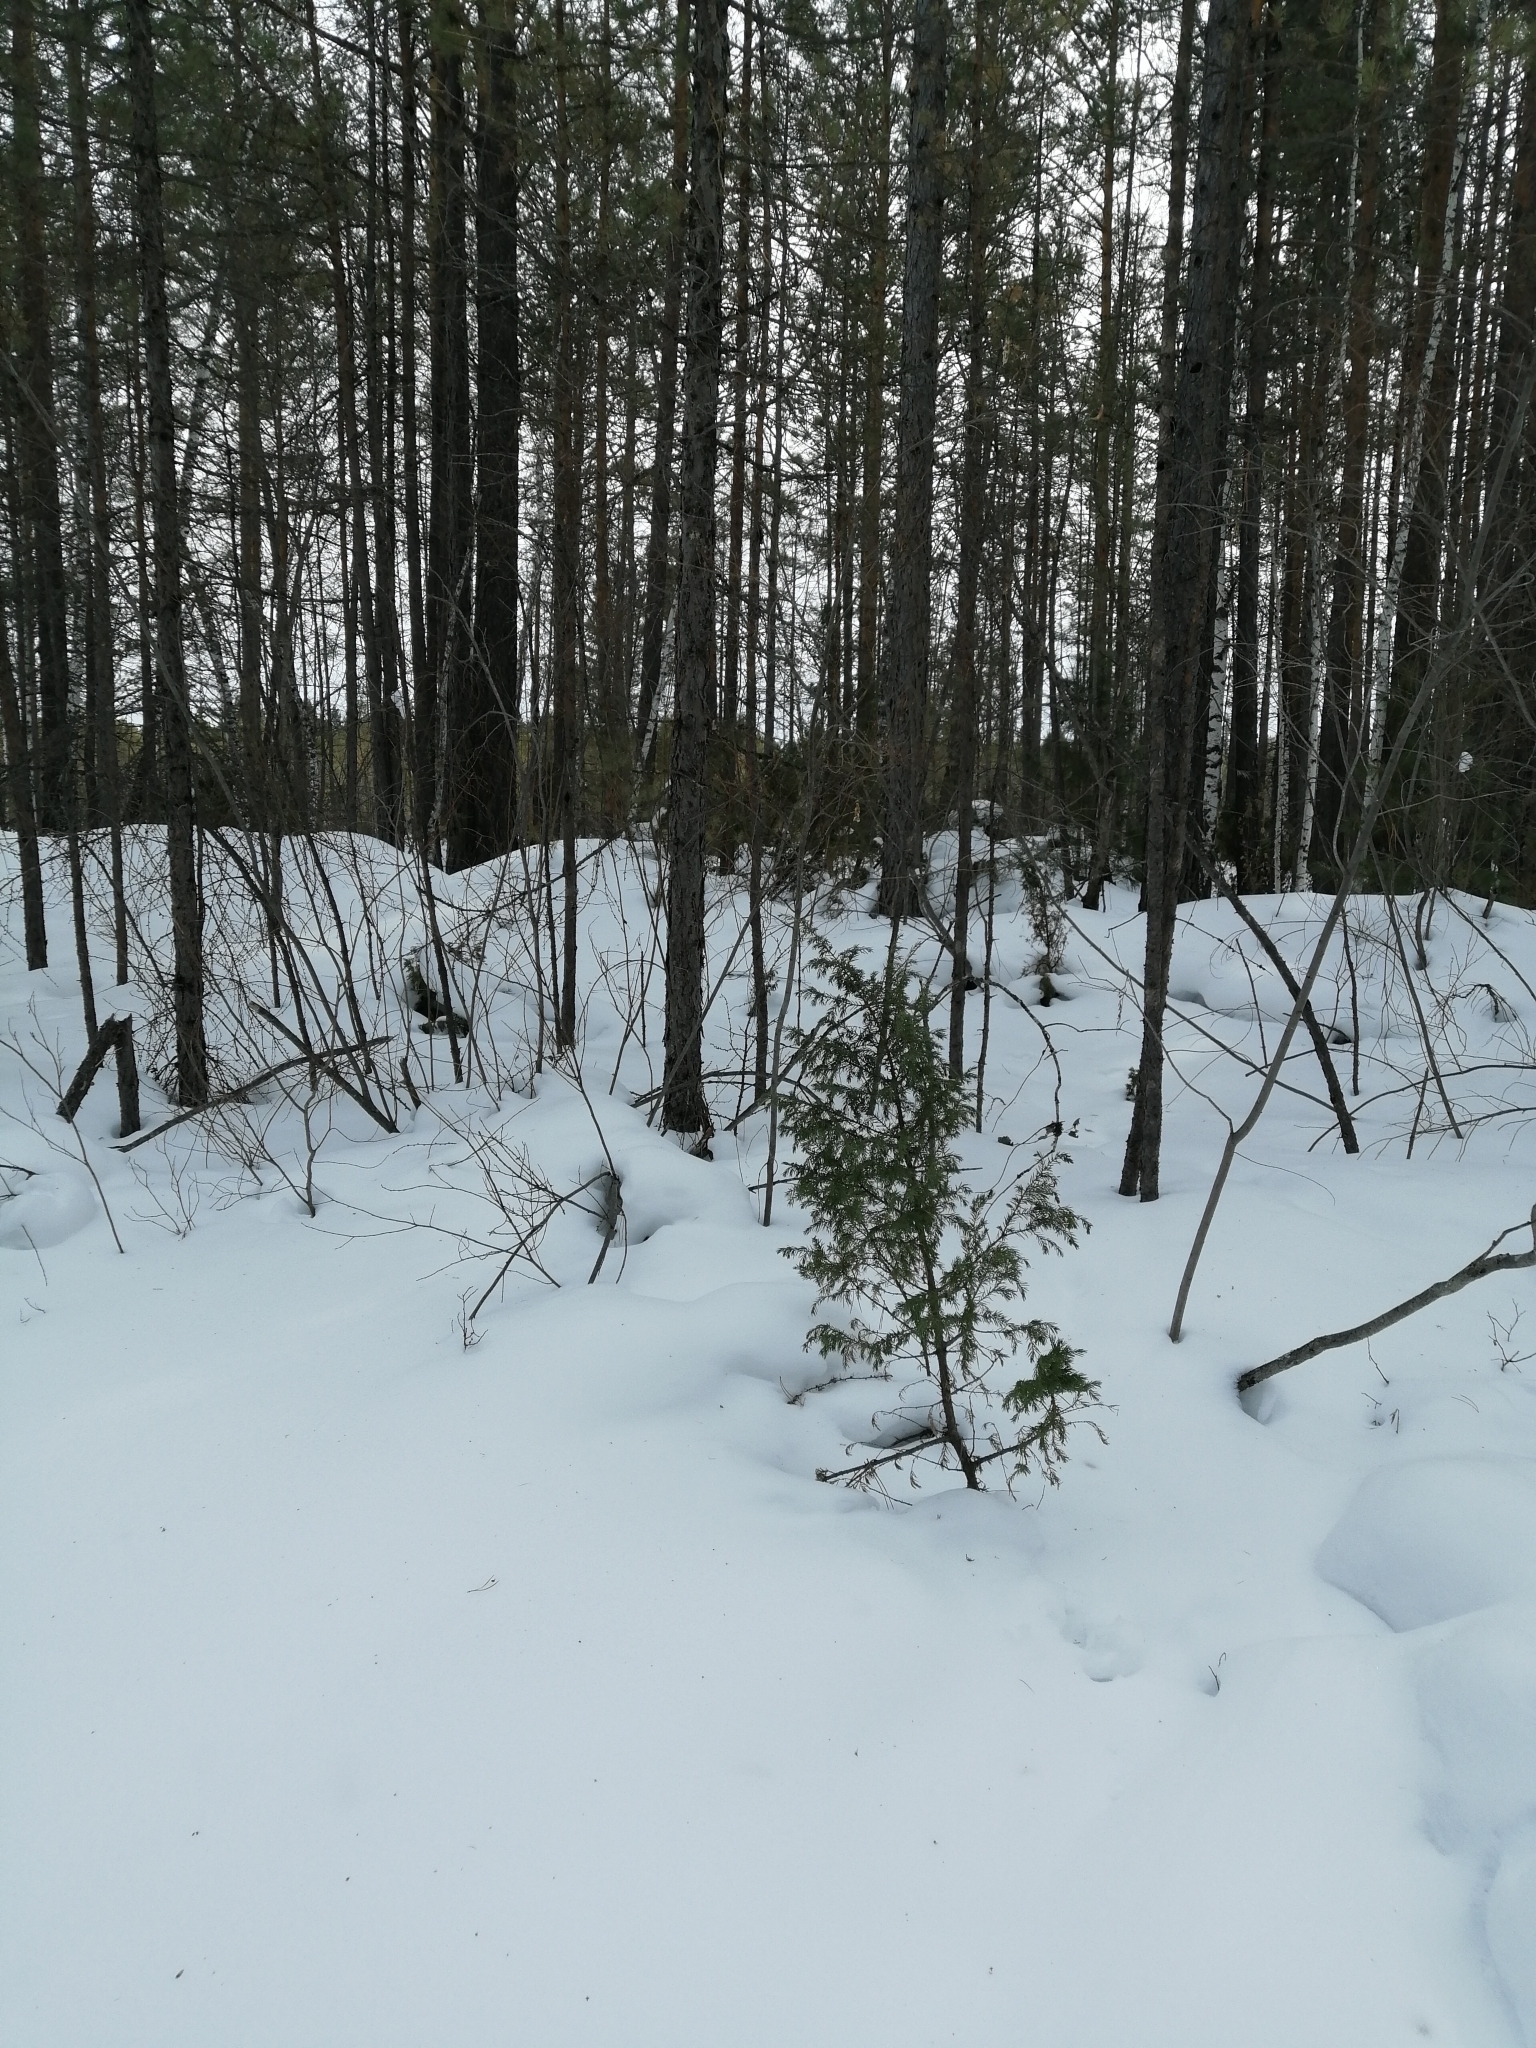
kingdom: Plantae
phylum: Tracheophyta
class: Pinopsida
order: Pinales
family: Cupressaceae
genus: Juniperus
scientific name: Juniperus communis
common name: Common juniper
